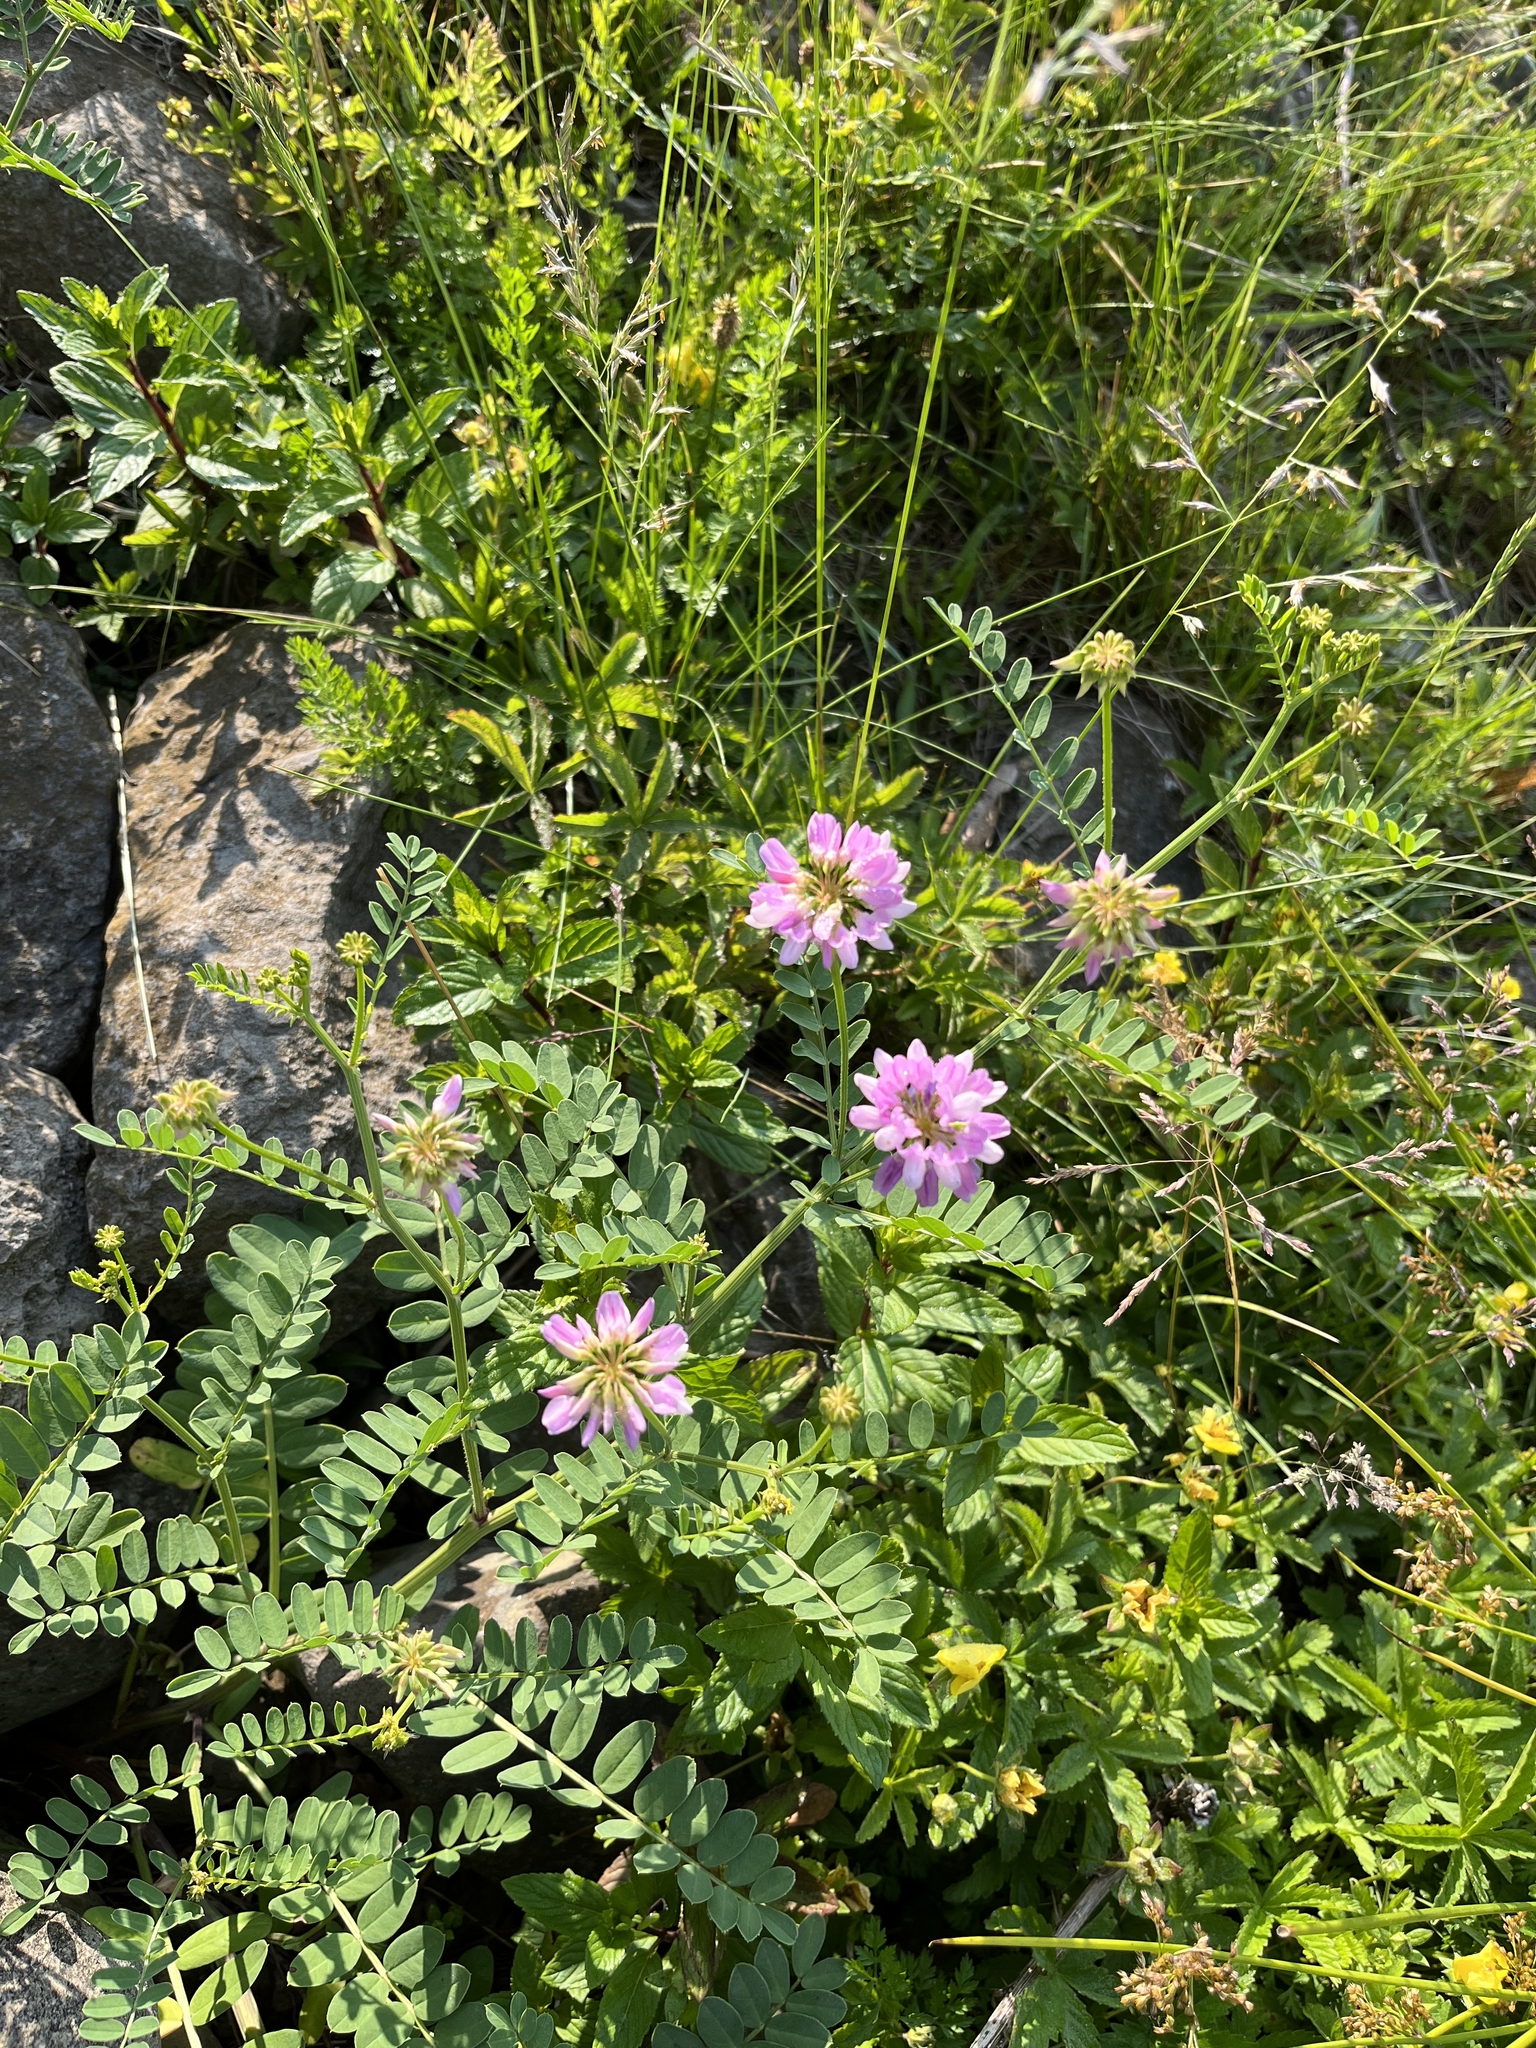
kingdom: Plantae
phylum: Tracheophyta
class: Magnoliopsida
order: Fabales
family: Fabaceae
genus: Coronilla
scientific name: Coronilla varia
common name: Crownvetch
